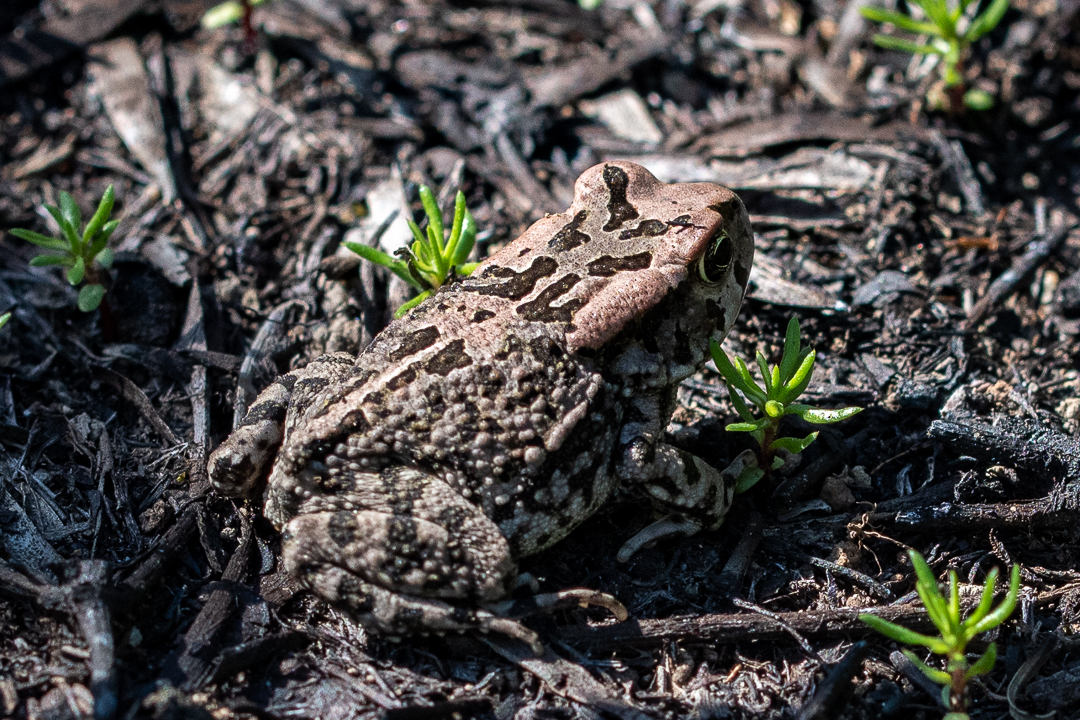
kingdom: Animalia
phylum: Chordata
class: Amphibia
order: Anura
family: Bufonidae
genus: Sclerophrys
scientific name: Sclerophrys capensis
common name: Ranger’s toad
